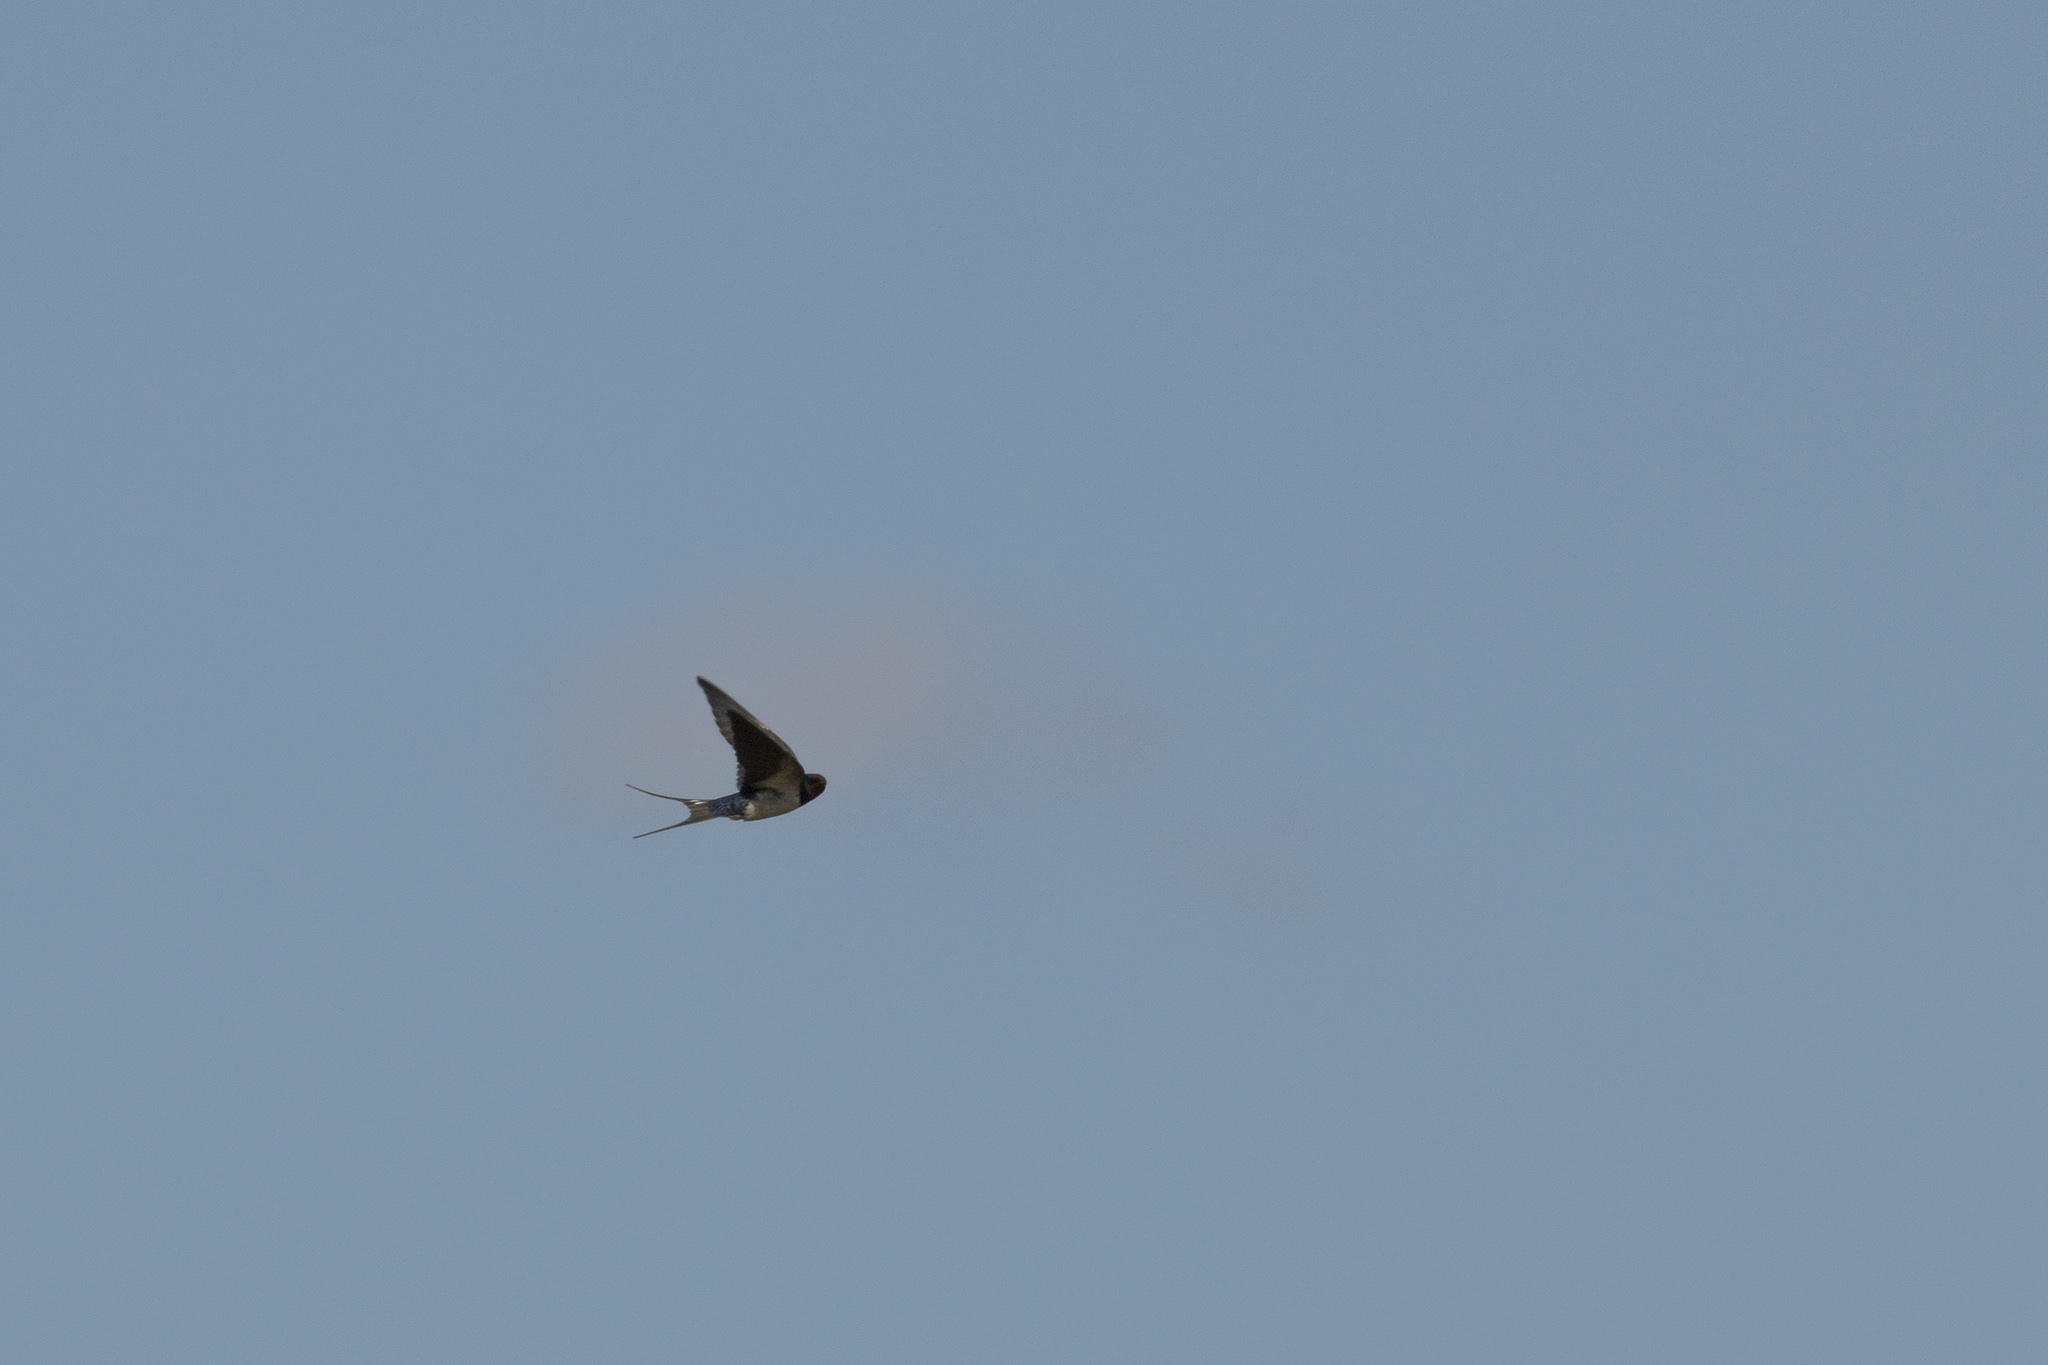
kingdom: Animalia
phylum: Chordata
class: Aves
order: Passeriformes
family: Hirundinidae
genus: Hirundo
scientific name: Hirundo rustica
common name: Barn swallow
